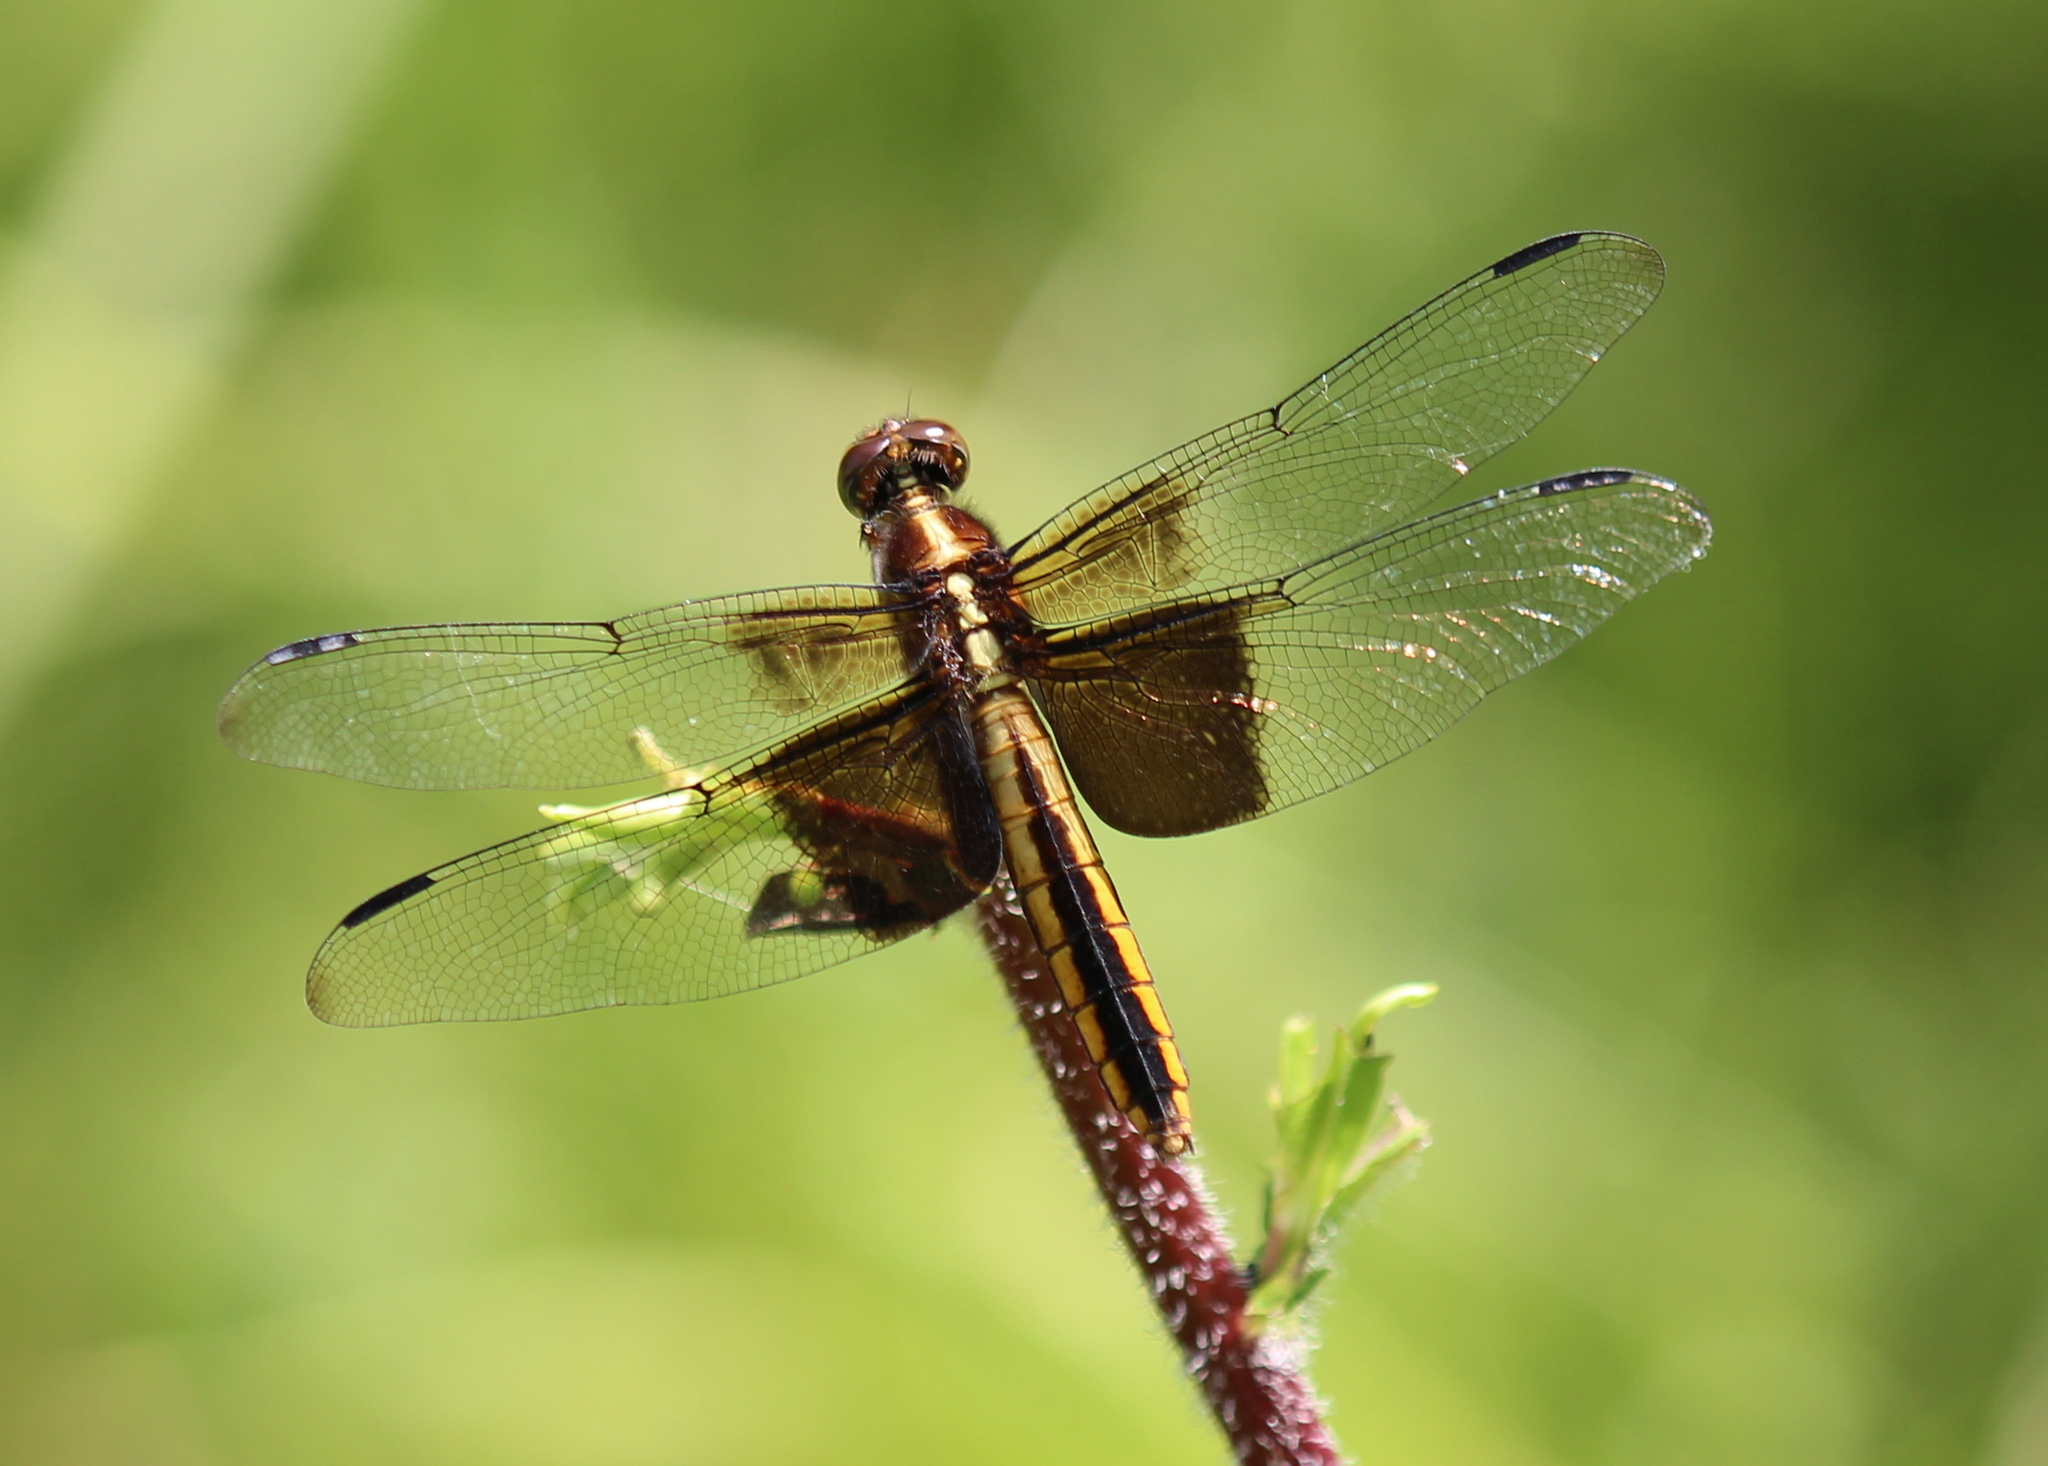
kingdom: Animalia
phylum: Arthropoda
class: Insecta
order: Odonata
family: Libellulidae
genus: Libellula
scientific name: Libellula luctuosa
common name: Widow skimmer
